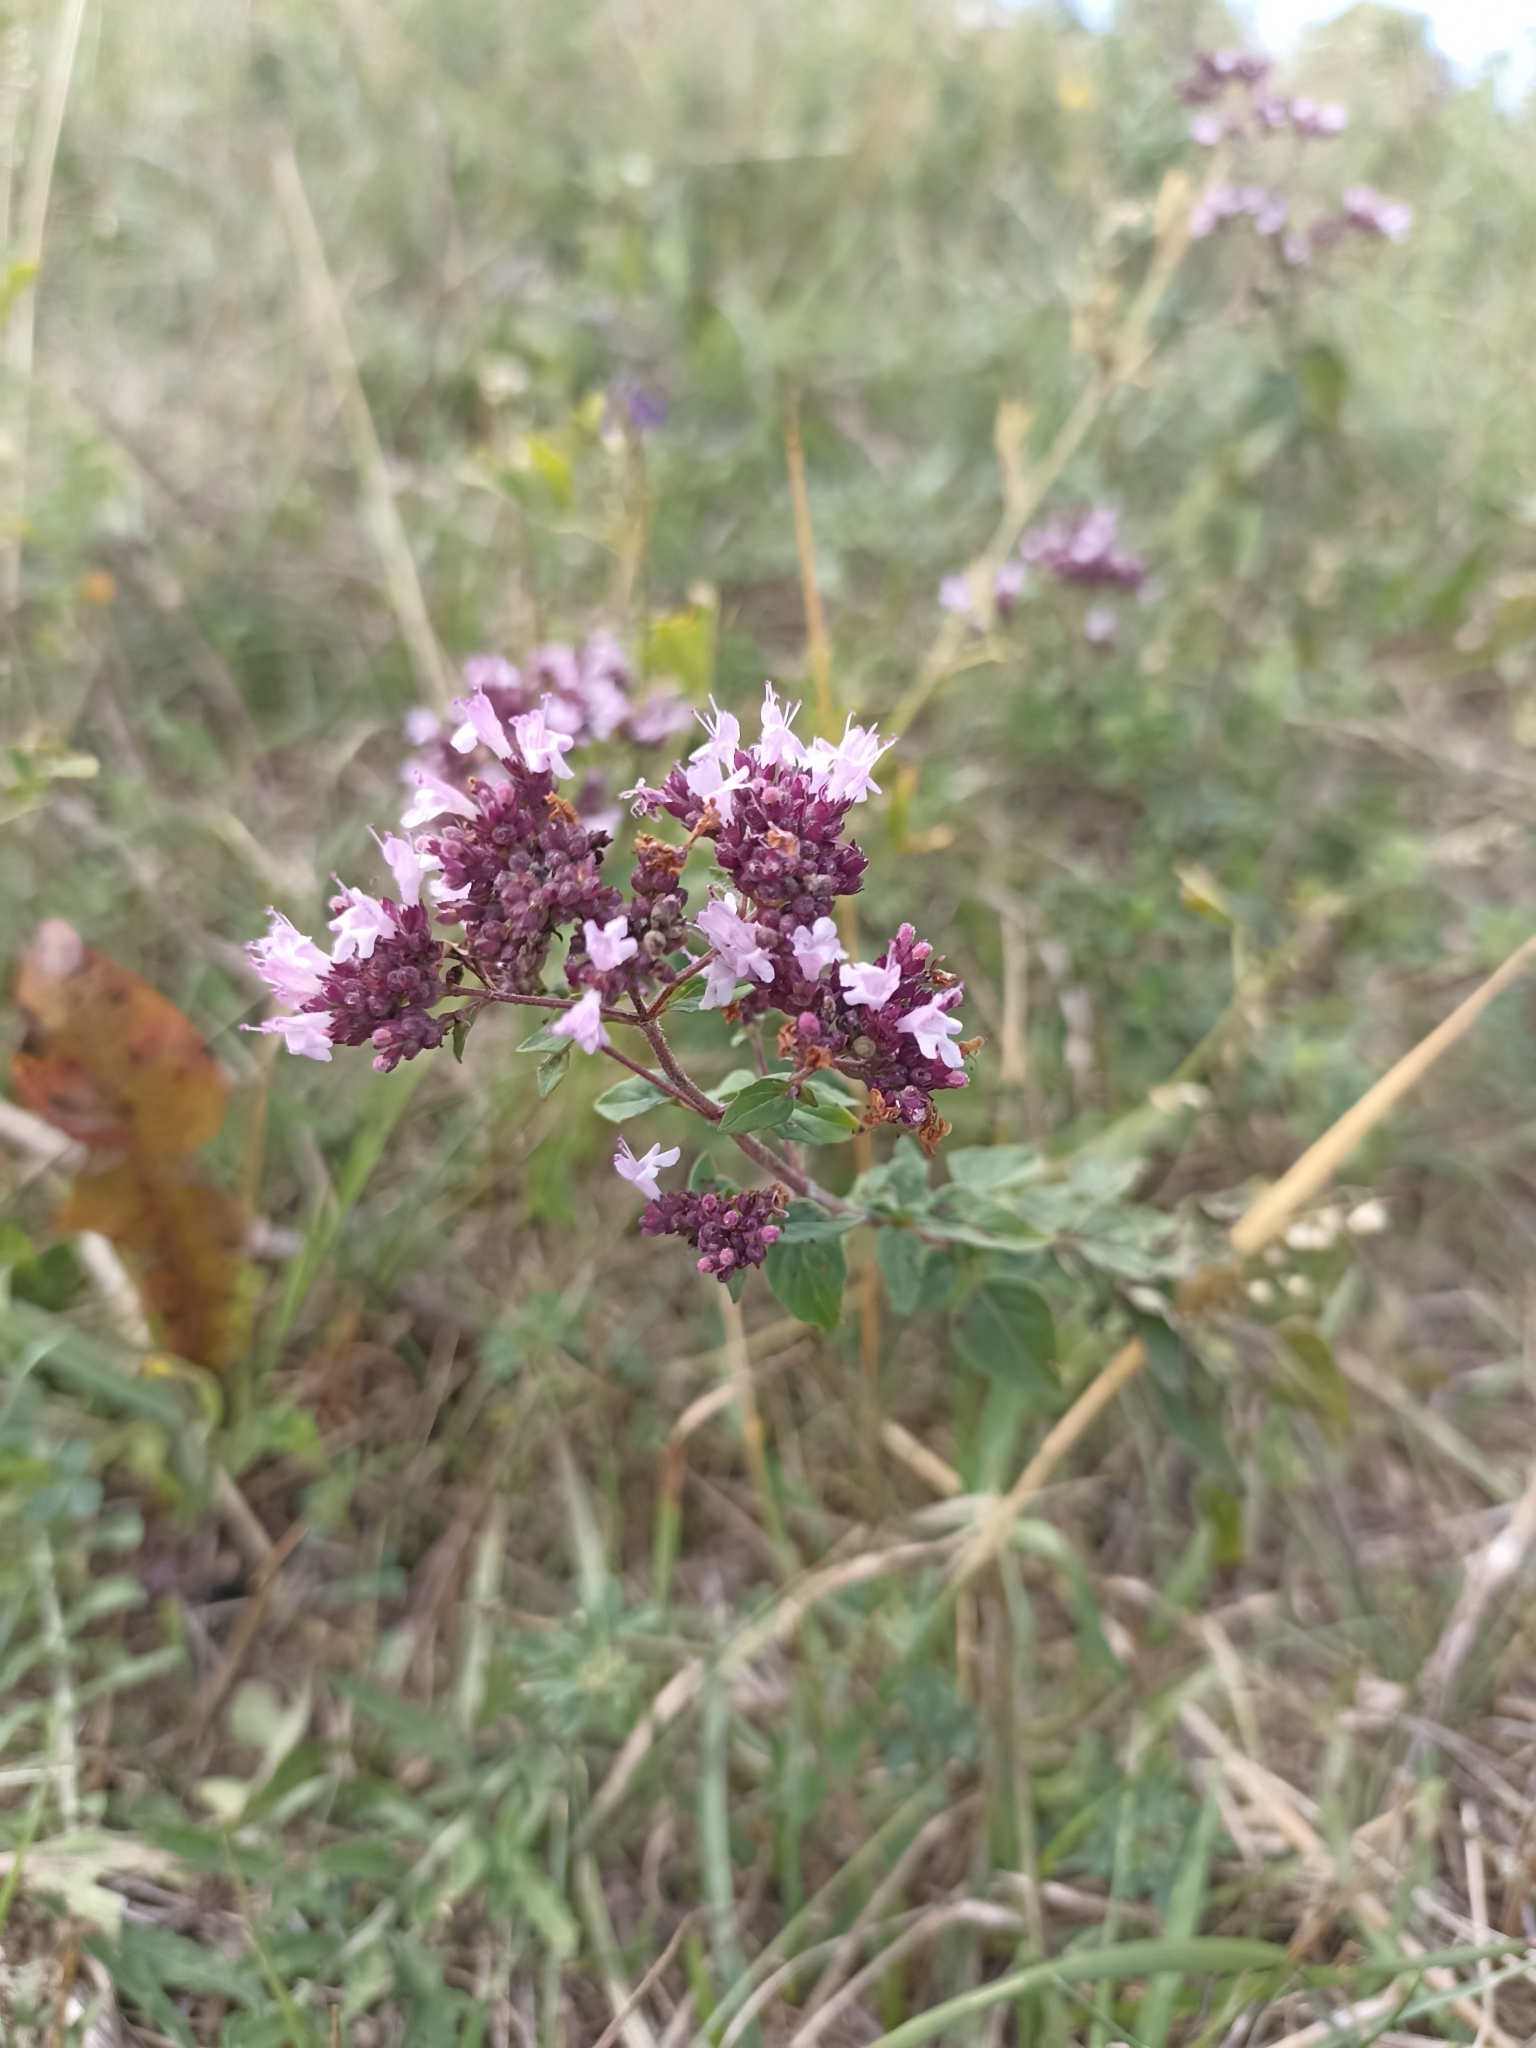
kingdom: Plantae
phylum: Tracheophyta
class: Magnoliopsida
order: Lamiales
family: Lamiaceae
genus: Origanum
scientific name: Origanum vulgare
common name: Wild marjoram
